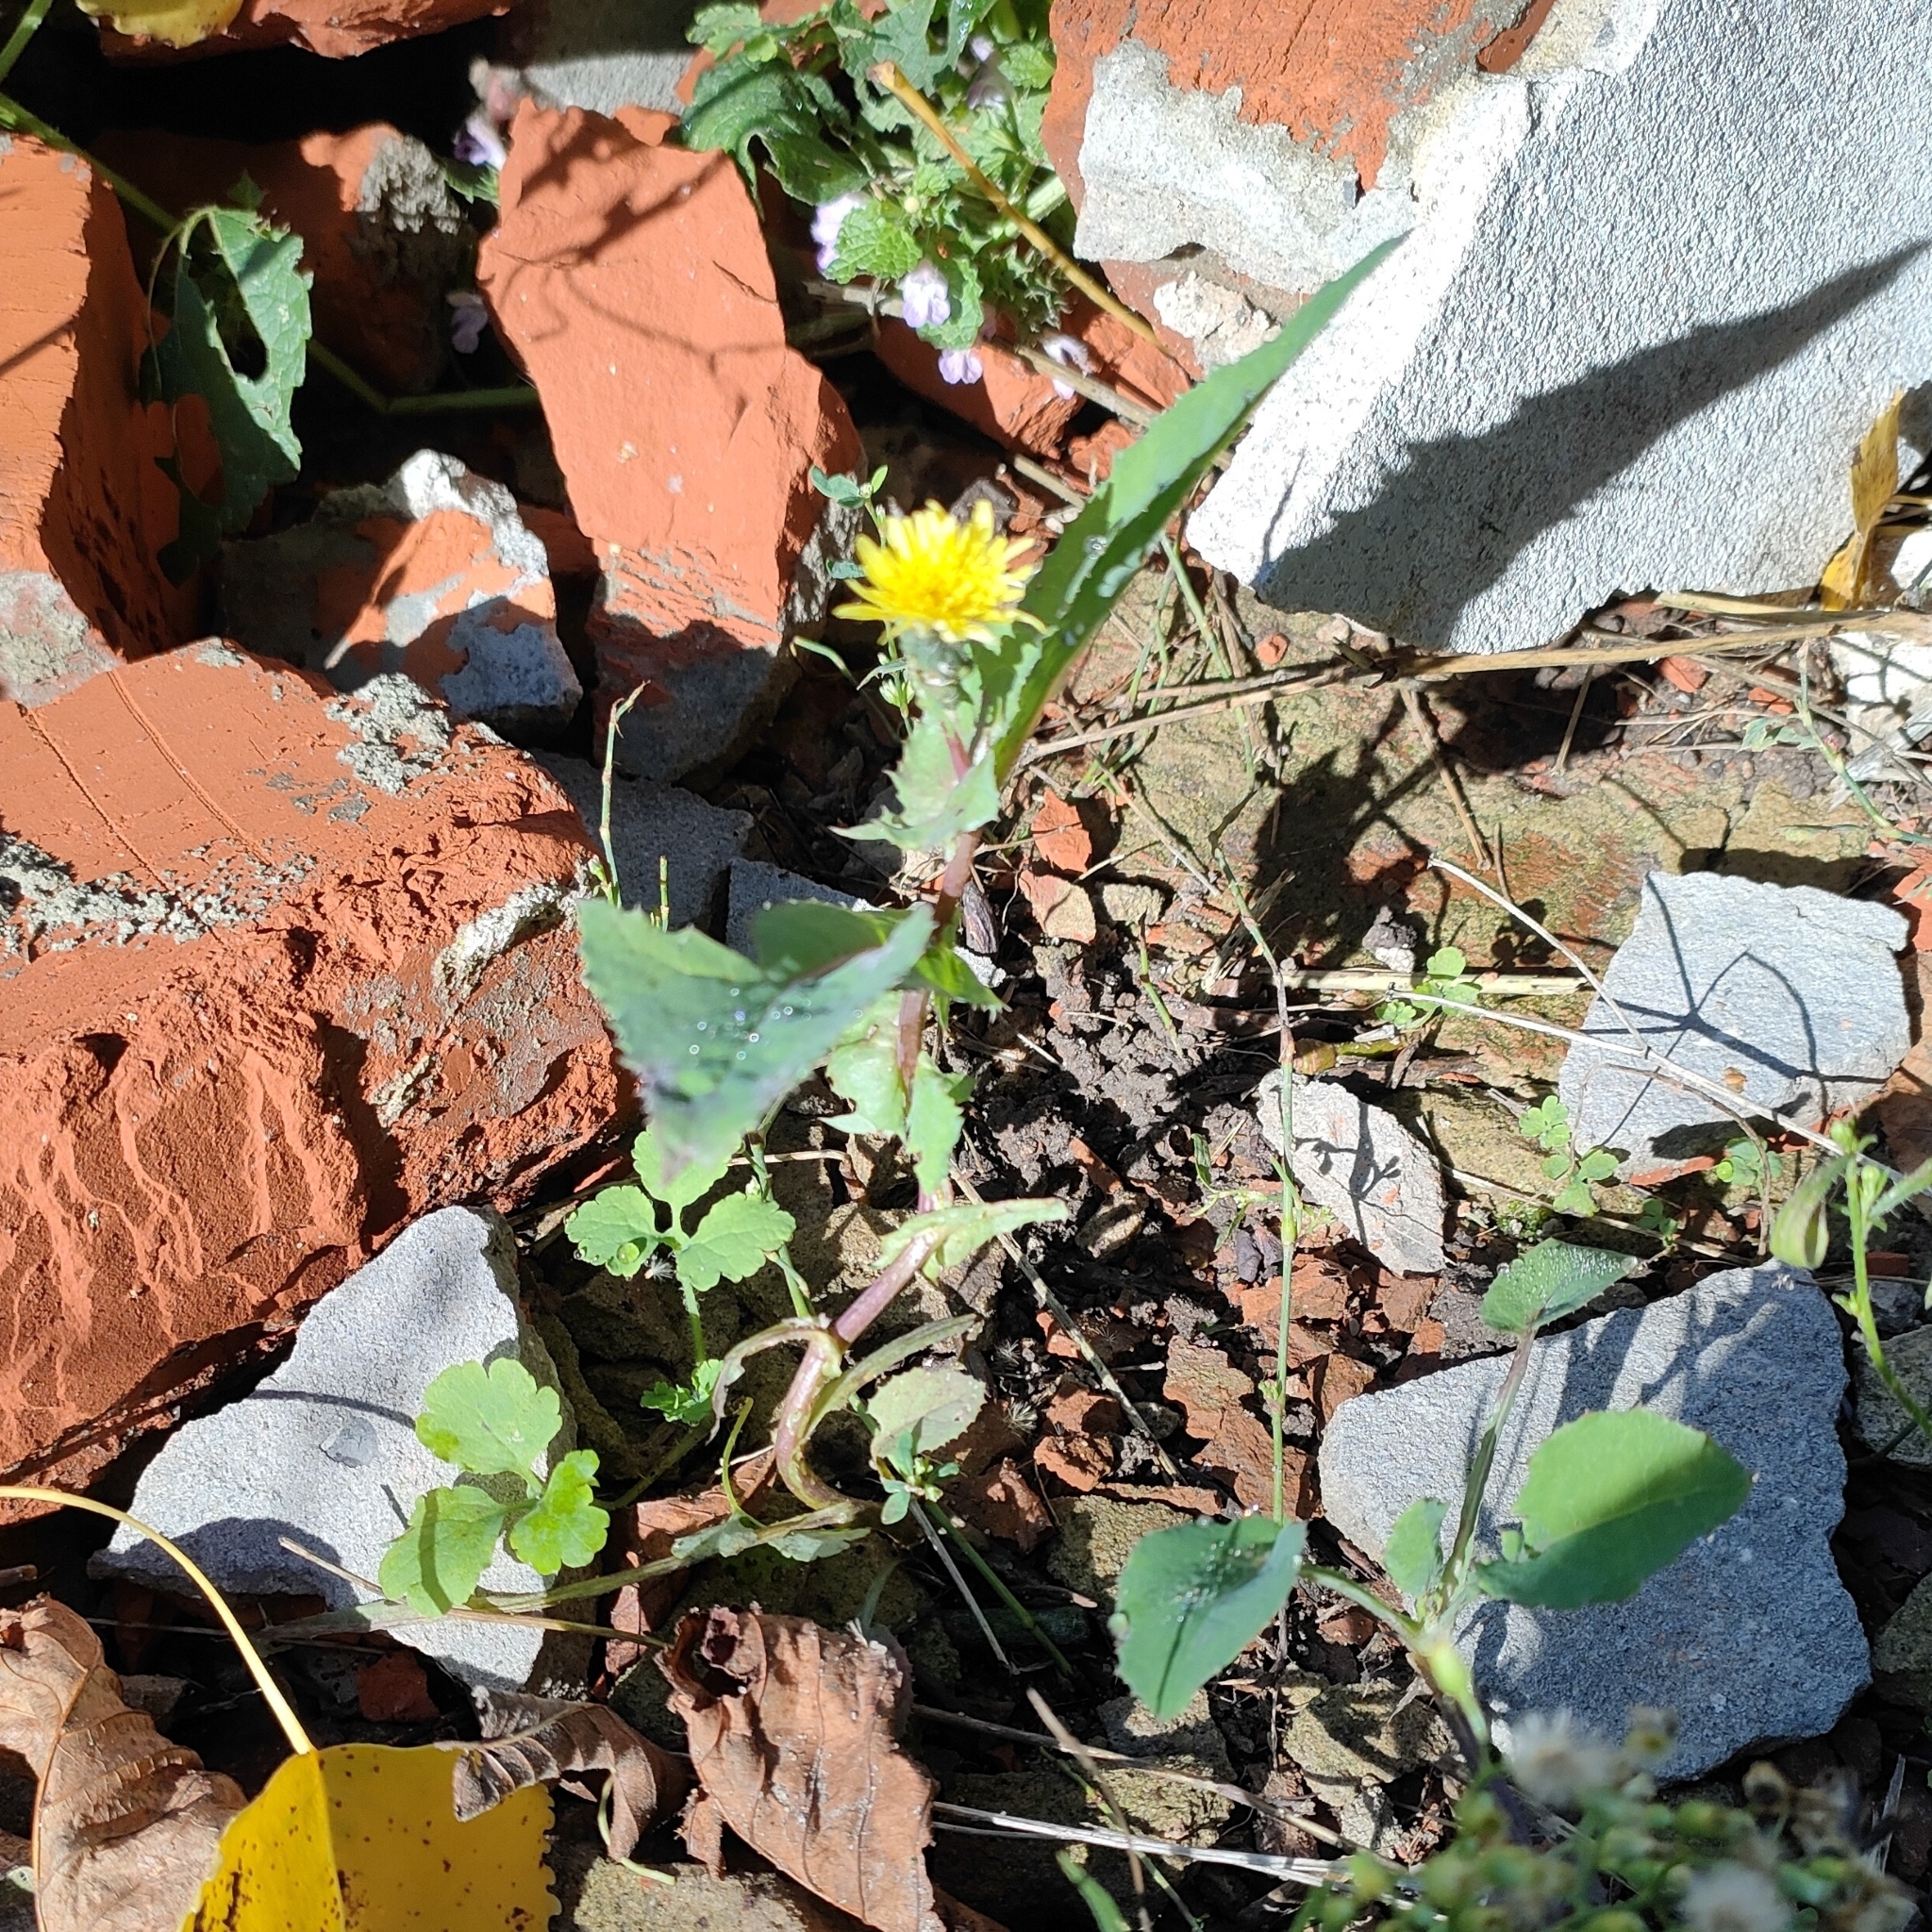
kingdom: Plantae
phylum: Tracheophyta
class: Magnoliopsida
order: Asterales
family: Asteraceae
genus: Sonchus
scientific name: Sonchus oleraceus
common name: Common sowthistle
